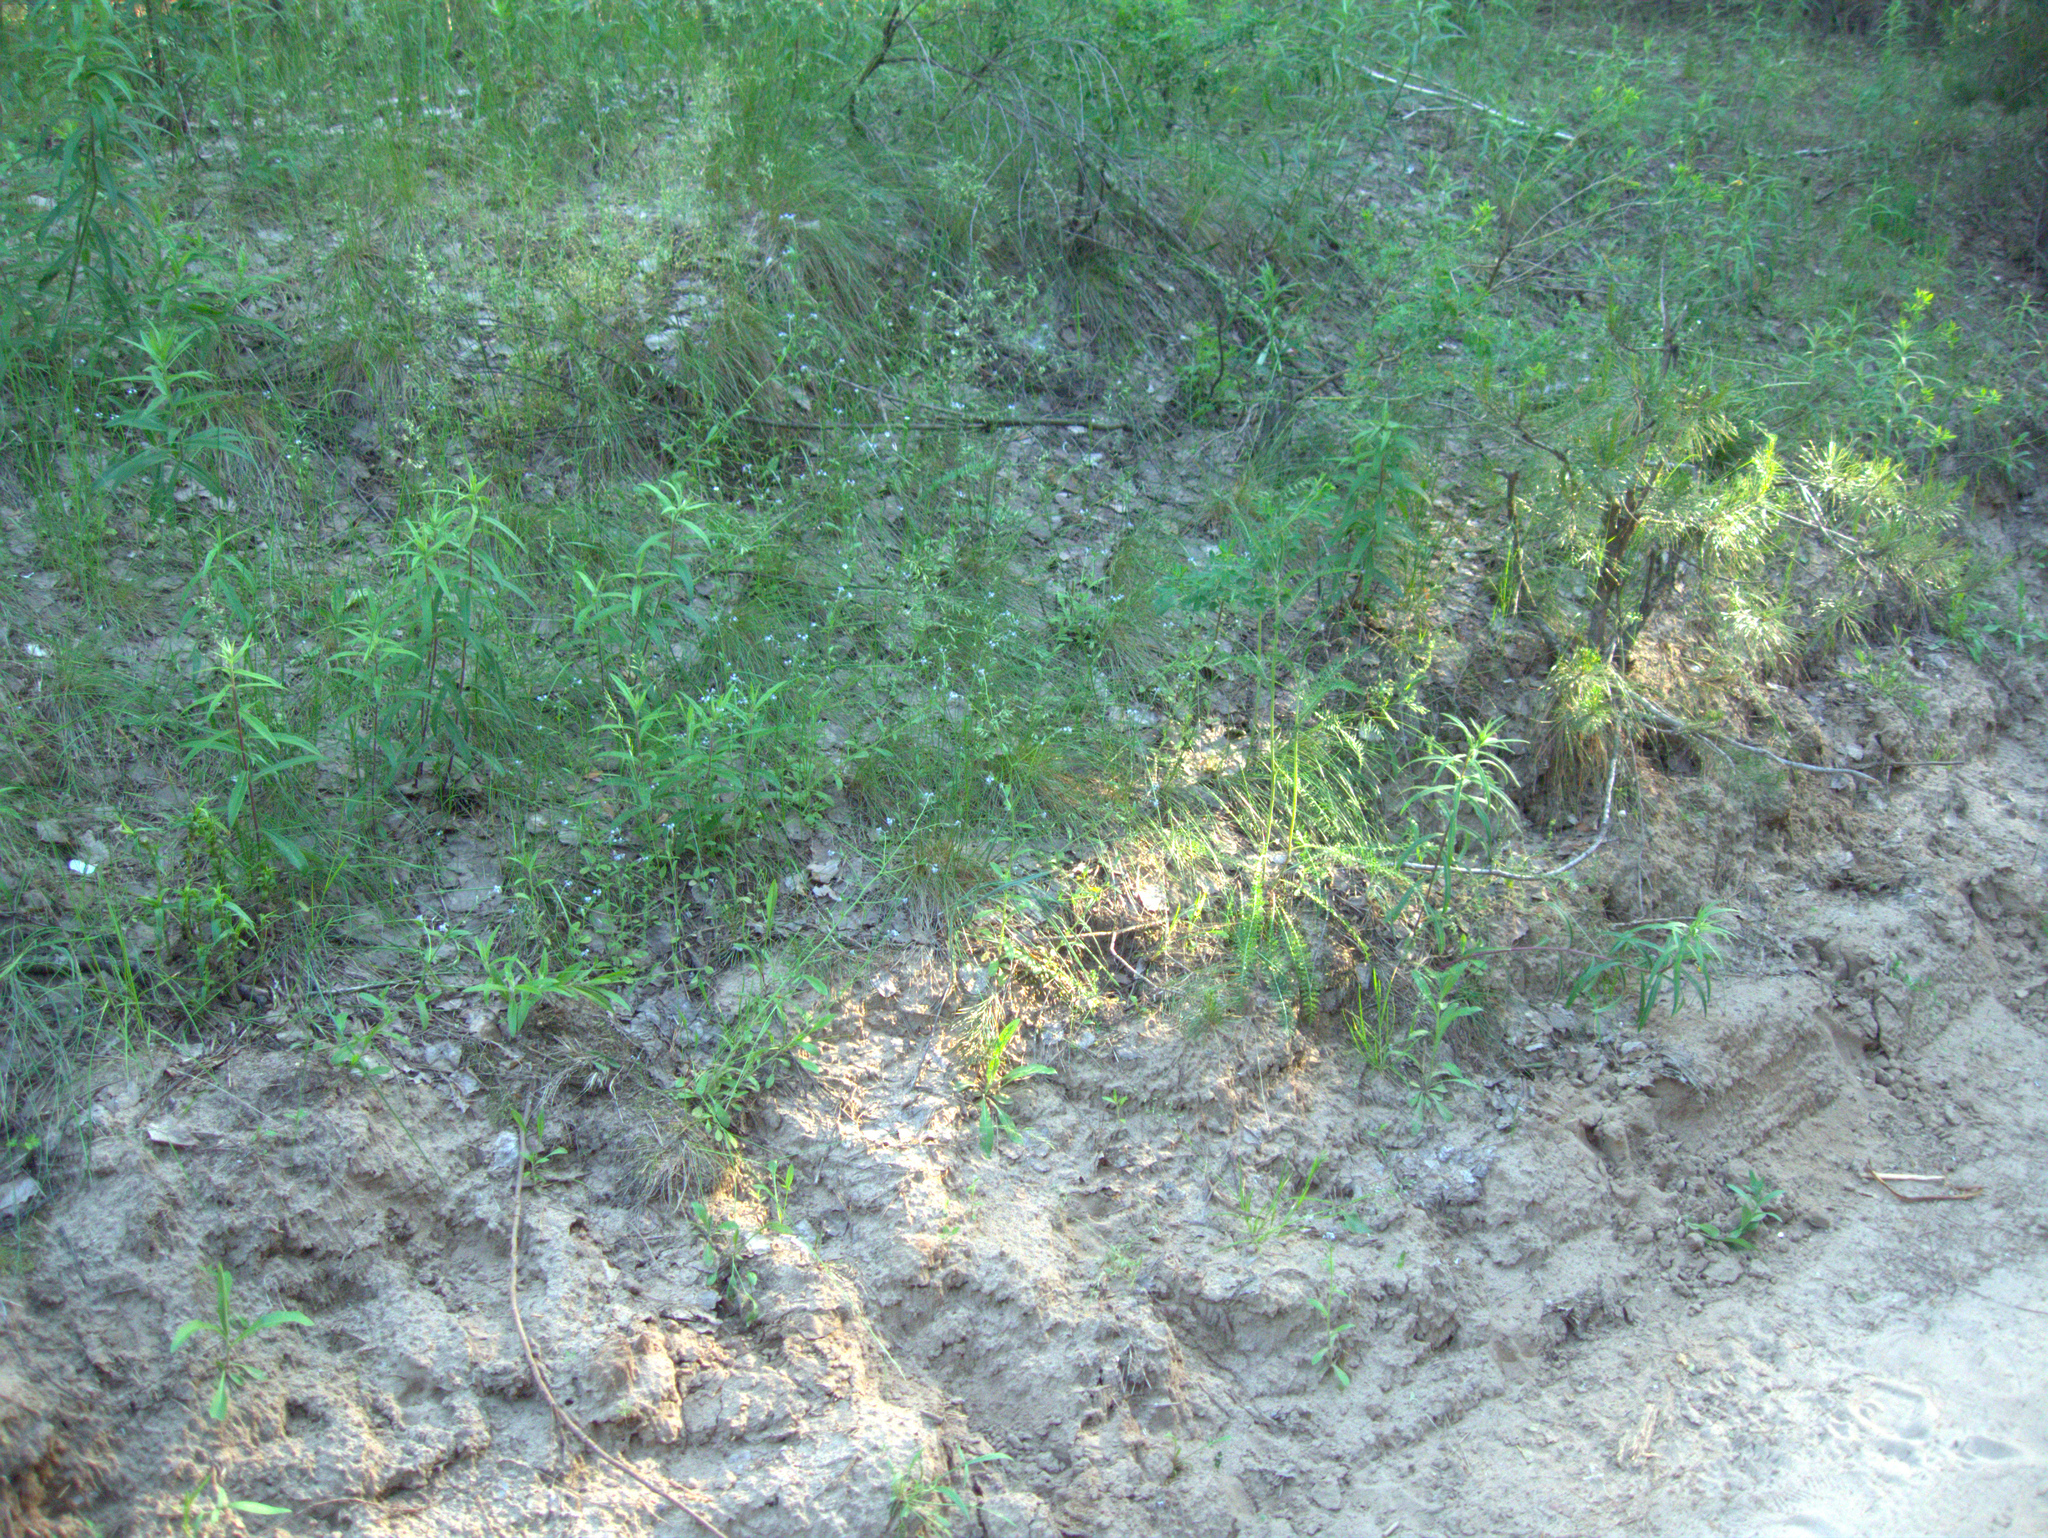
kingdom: Plantae
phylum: Tracheophyta
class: Magnoliopsida
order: Asterales
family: Asteraceae
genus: Achillea
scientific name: Achillea millefolium
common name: Yarrow
